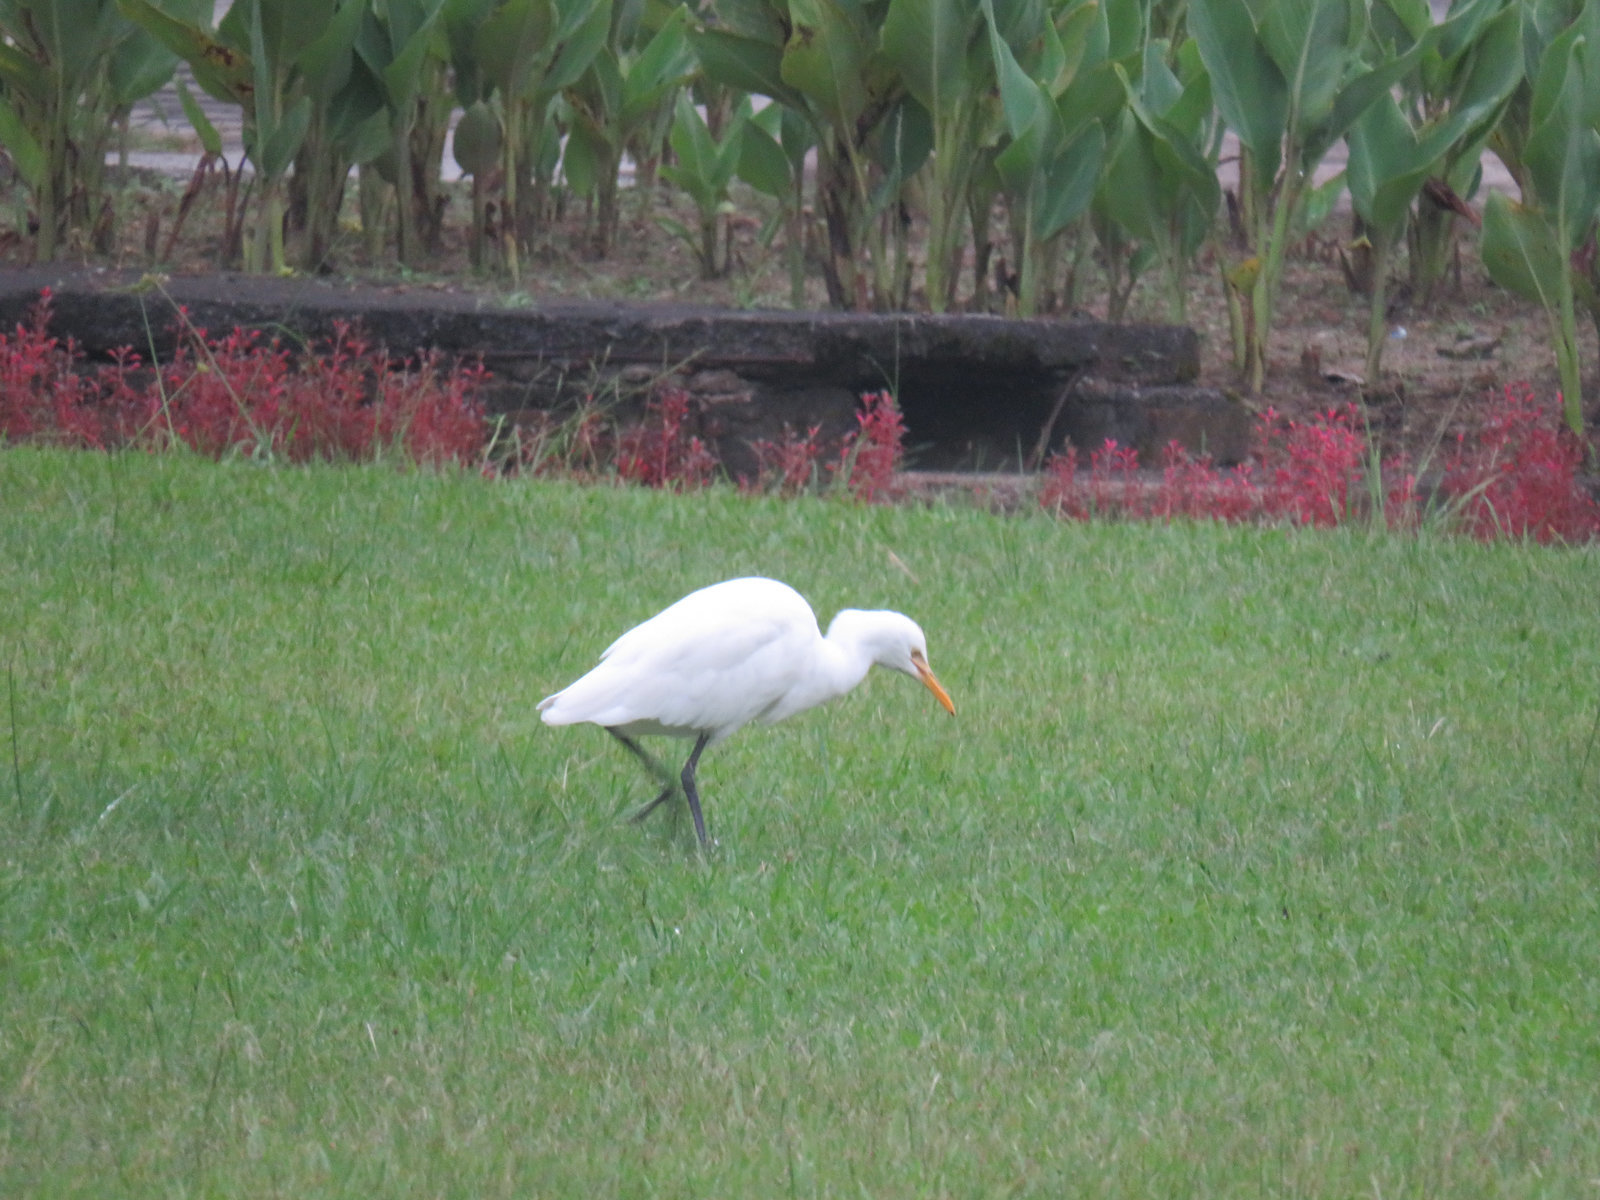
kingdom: Animalia
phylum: Chordata
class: Aves
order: Pelecaniformes
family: Ardeidae
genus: Bubulcus
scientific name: Bubulcus coromandus
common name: Eastern cattle egret
